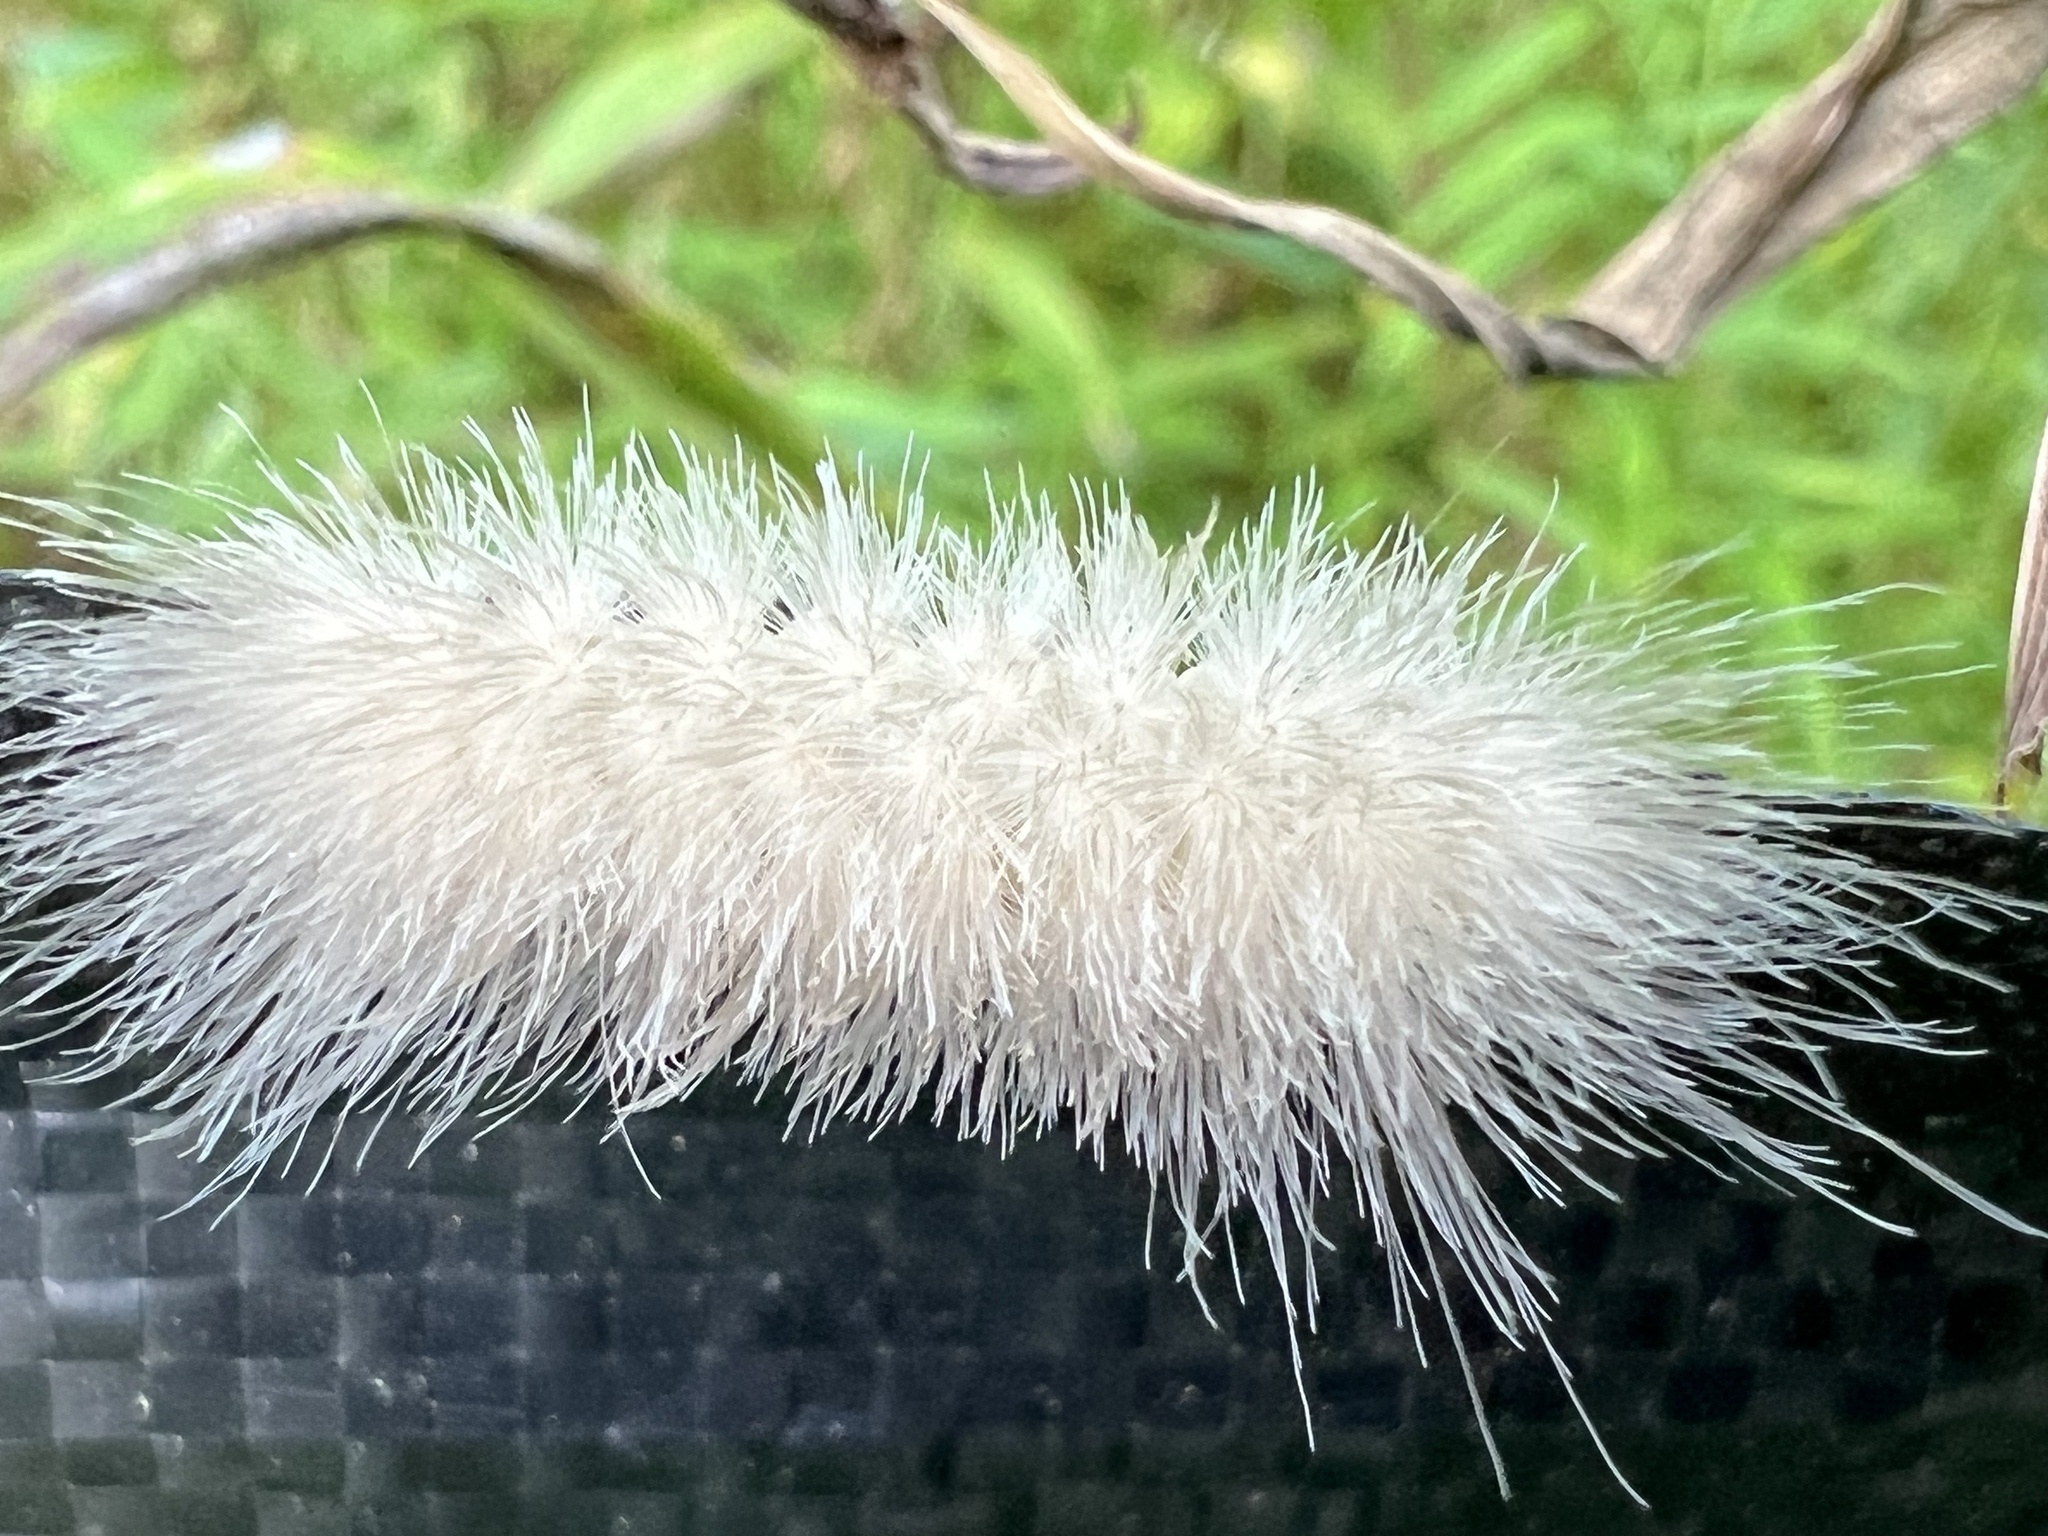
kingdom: Animalia
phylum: Arthropoda
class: Insecta
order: Lepidoptera
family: Erebidae
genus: Cycnia
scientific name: Cycnia tenera
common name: Delicate cycnia moth
